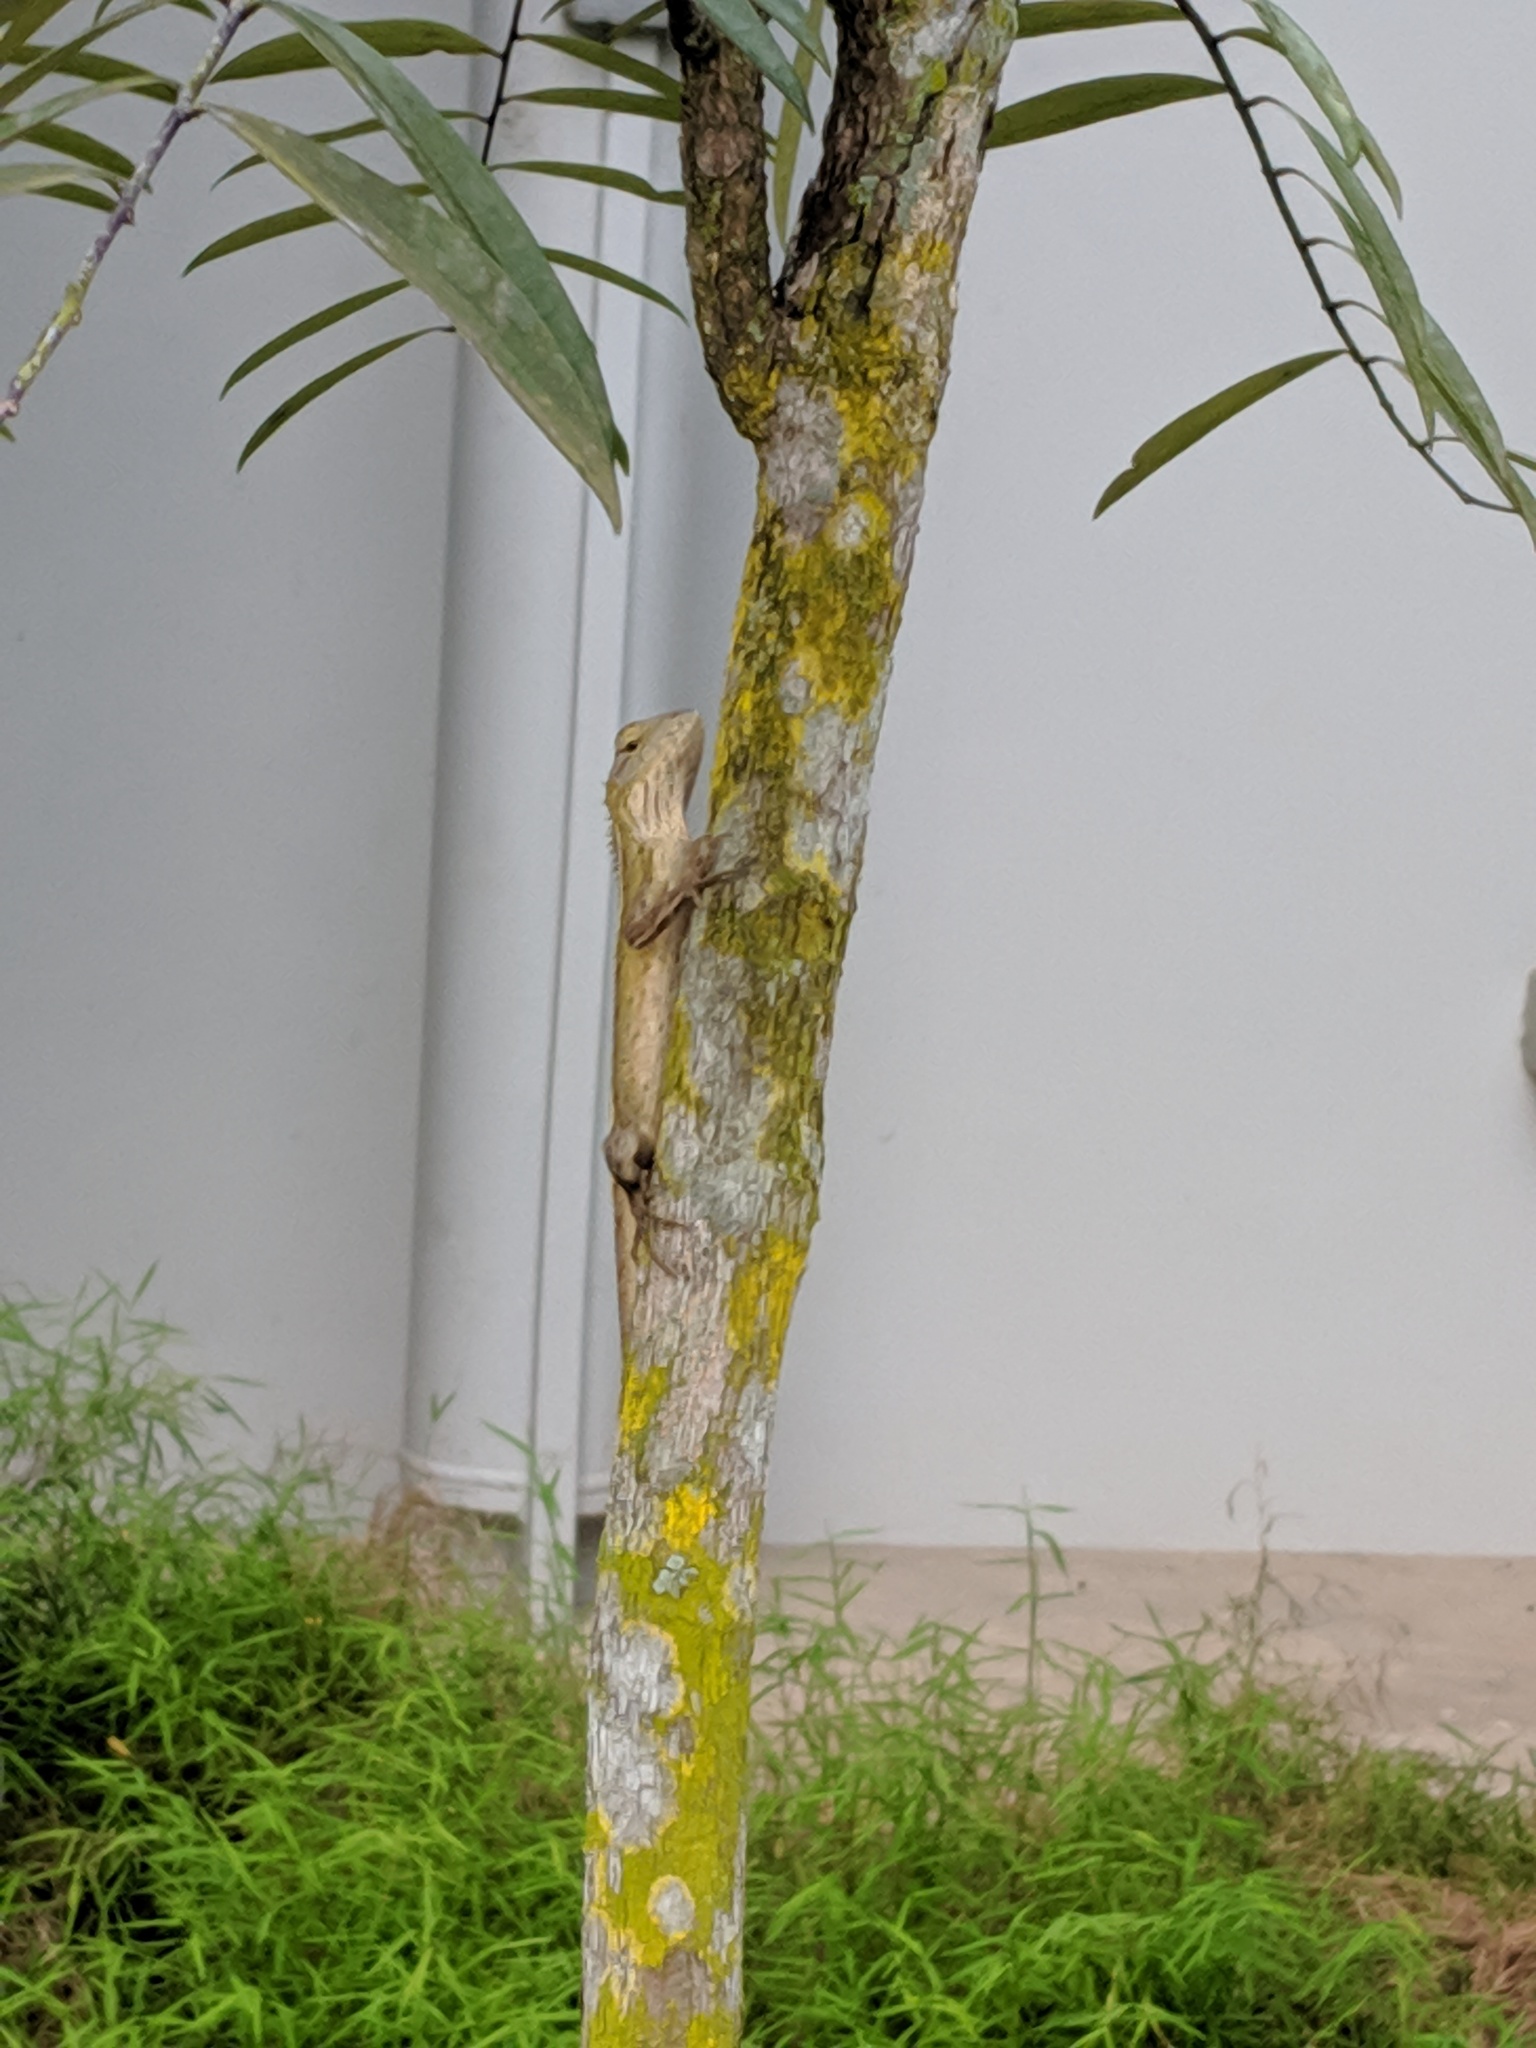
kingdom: Animalia
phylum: Chordata
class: Squamata
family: Agamidae
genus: Calotes
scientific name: Calotes versicolor
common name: Oriental garden lizard
